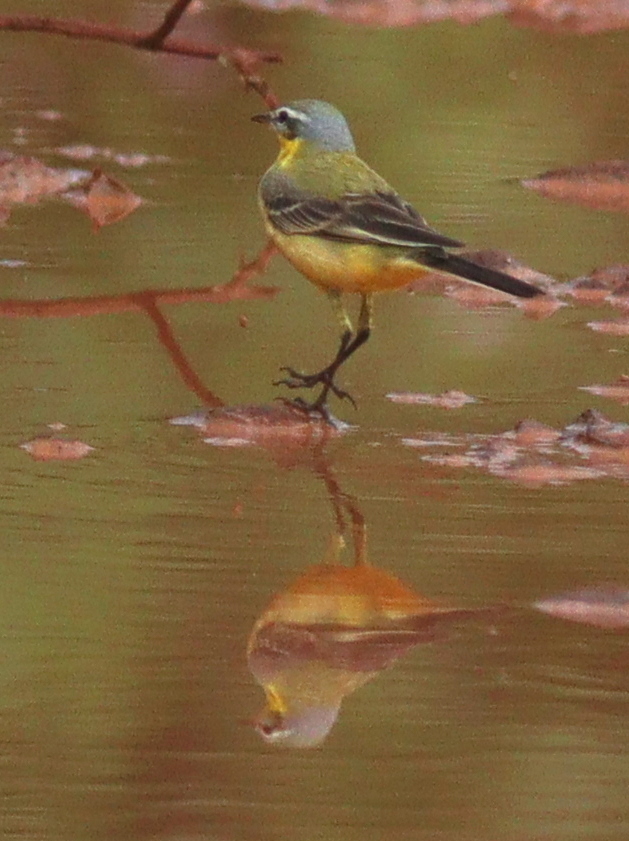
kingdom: Animalia
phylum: Chordata
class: Aves
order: Passeriformes
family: Motacillidae
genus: Motacilla
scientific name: Motacilla flava
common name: Western yellow wagtail
